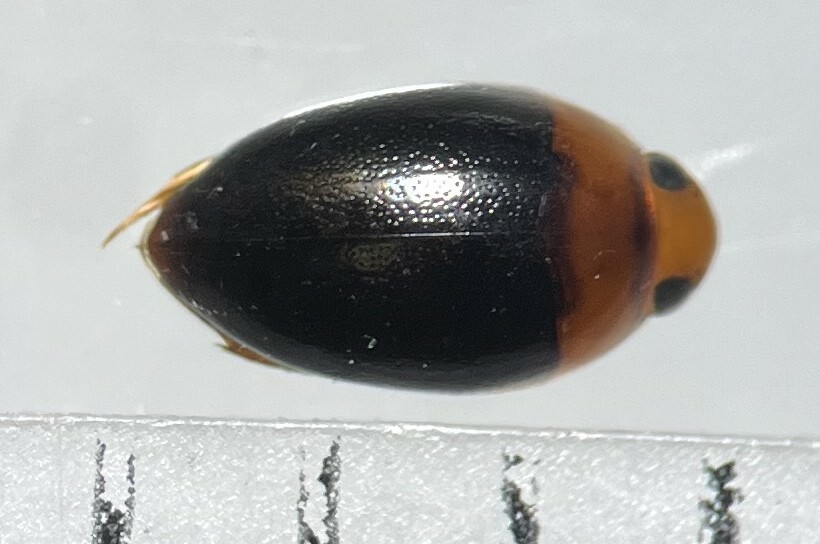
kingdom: Animalia
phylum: Arthropoda
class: Insecta
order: Coleoptera
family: Noteridae
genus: Suphisellus
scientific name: Suphisellus bicolor
